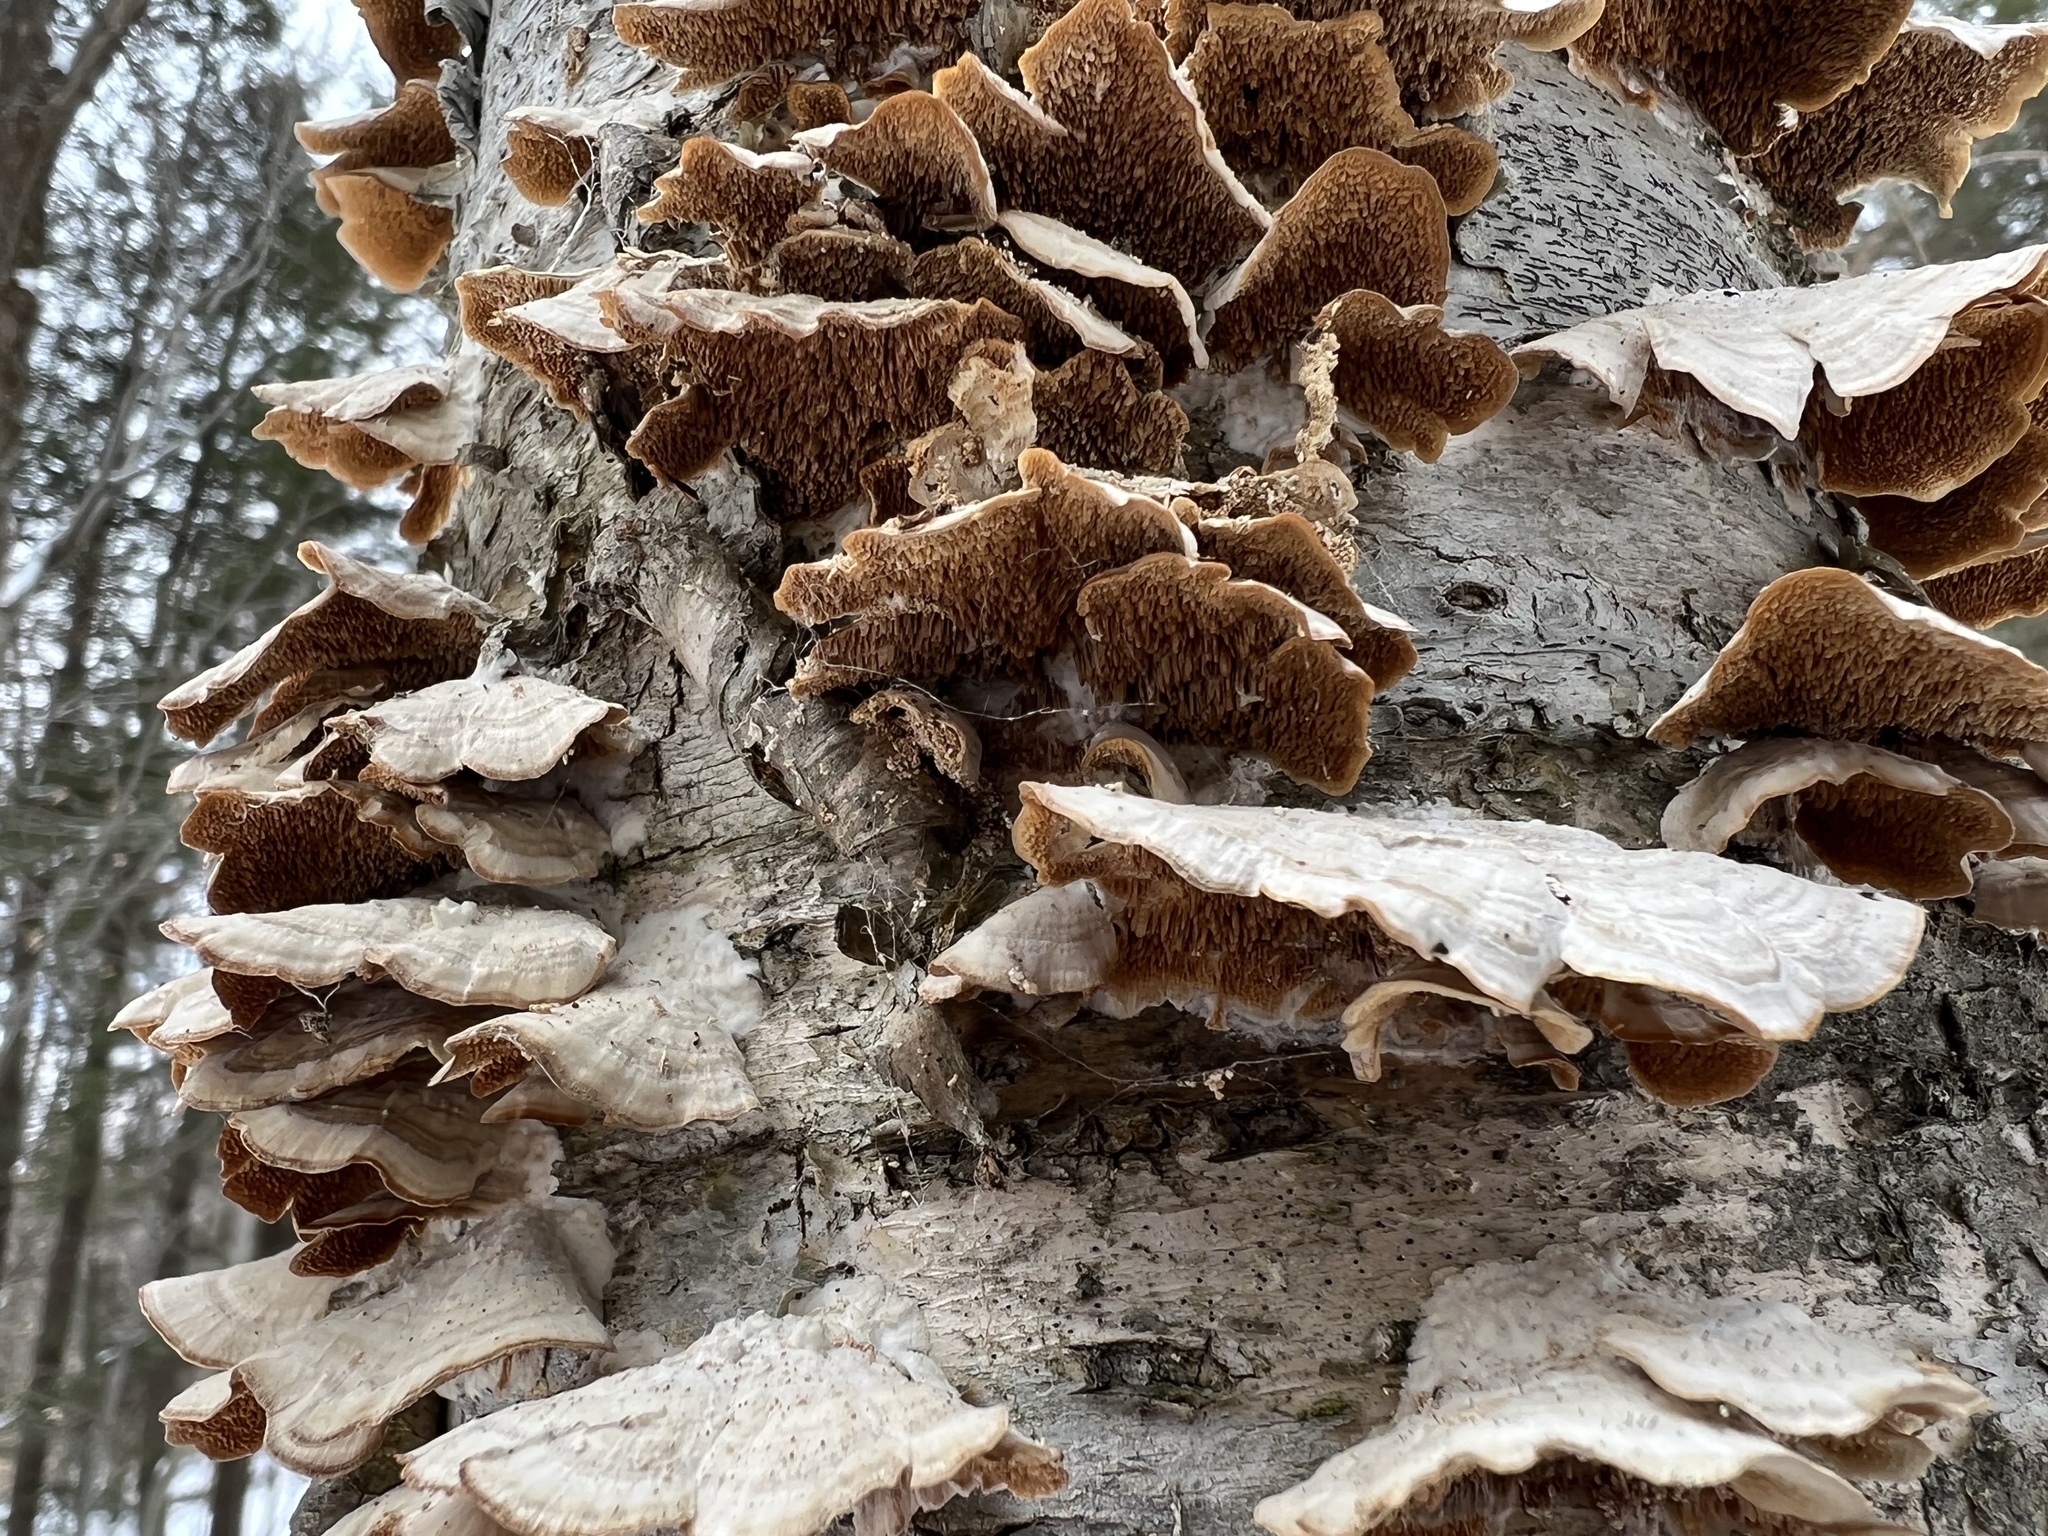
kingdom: Fungi
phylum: Basidiomycota
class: Agaricomycetes
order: Hymenochaetales
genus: Trichaptum
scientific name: Trichaptum biforme
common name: Violet-toothed polypore
